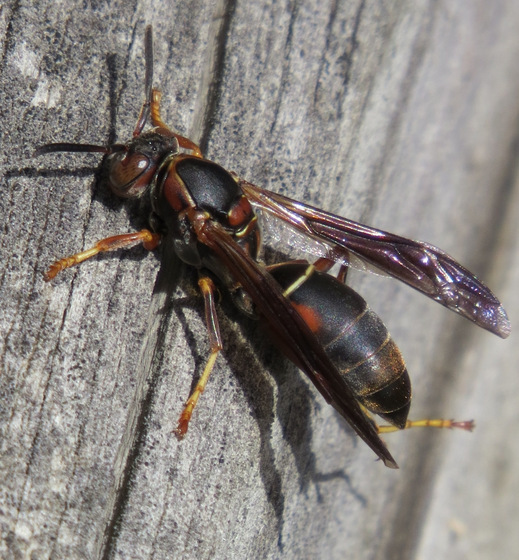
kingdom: Animalia
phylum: Arthropoda
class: Insecta
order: Hymenoptera
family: Eumenidae
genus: Polistes
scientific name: Polistes fuscatus
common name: Dark paper wasp
